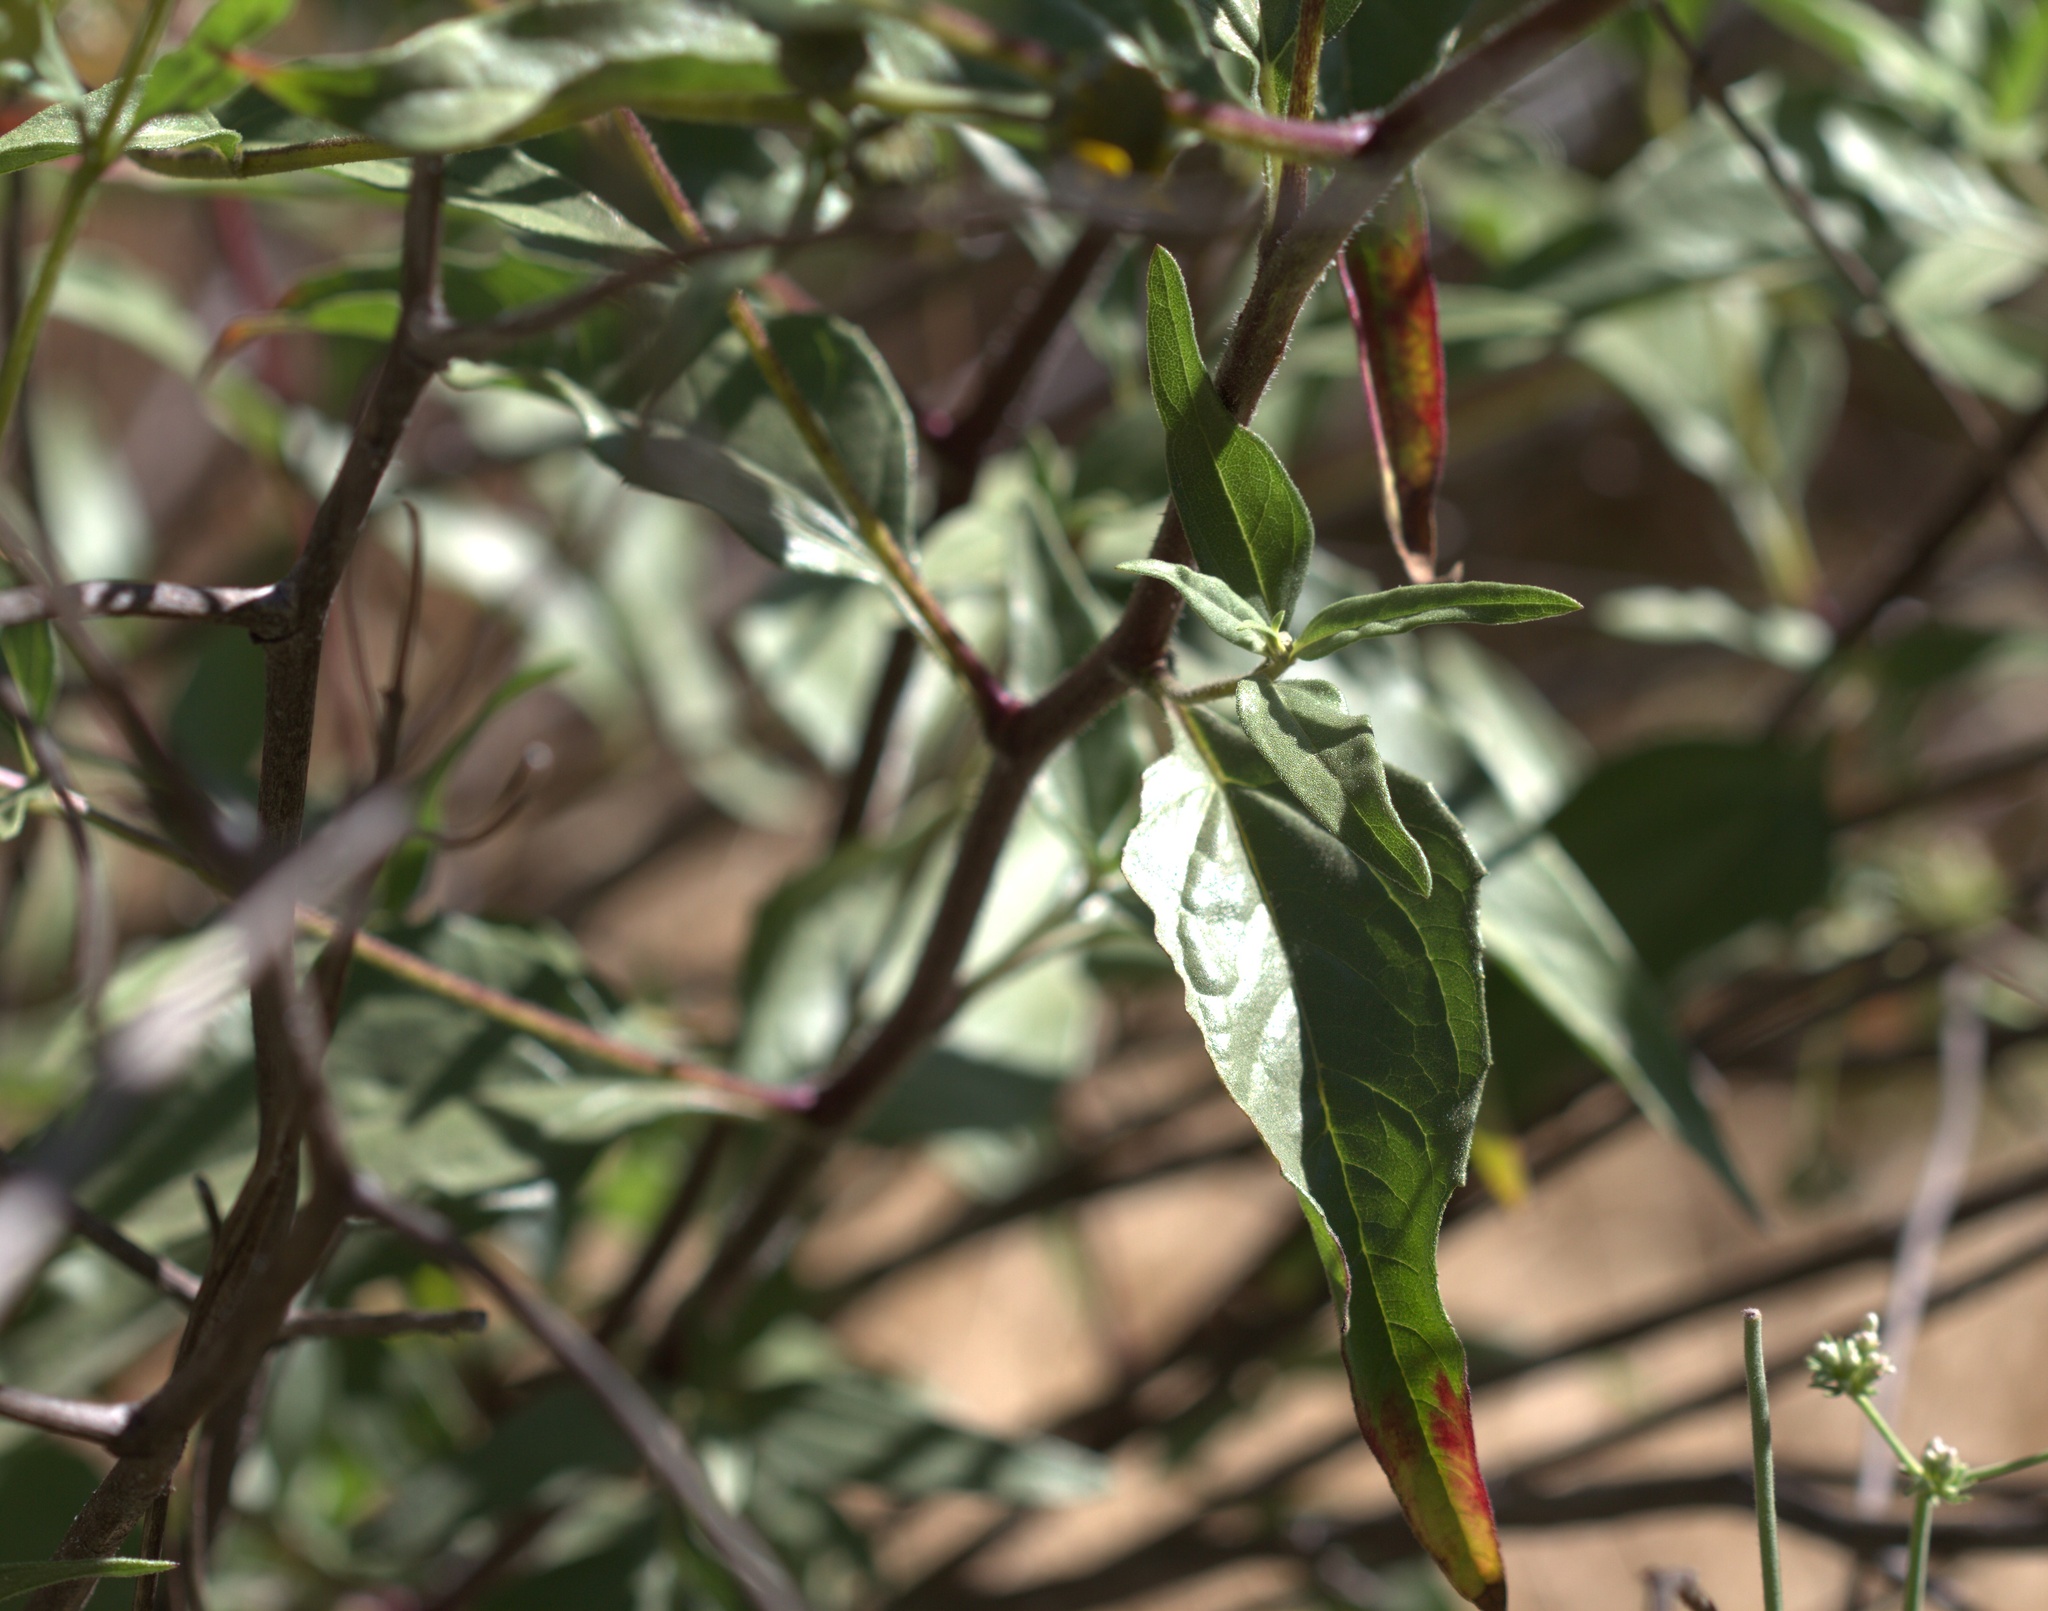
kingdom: Plantae
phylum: Tracheophyta
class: Magnoliopsida
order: Asterales
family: Asteraceae
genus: Helianthus
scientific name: Helianthus gracilentus
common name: Slender sunflower
